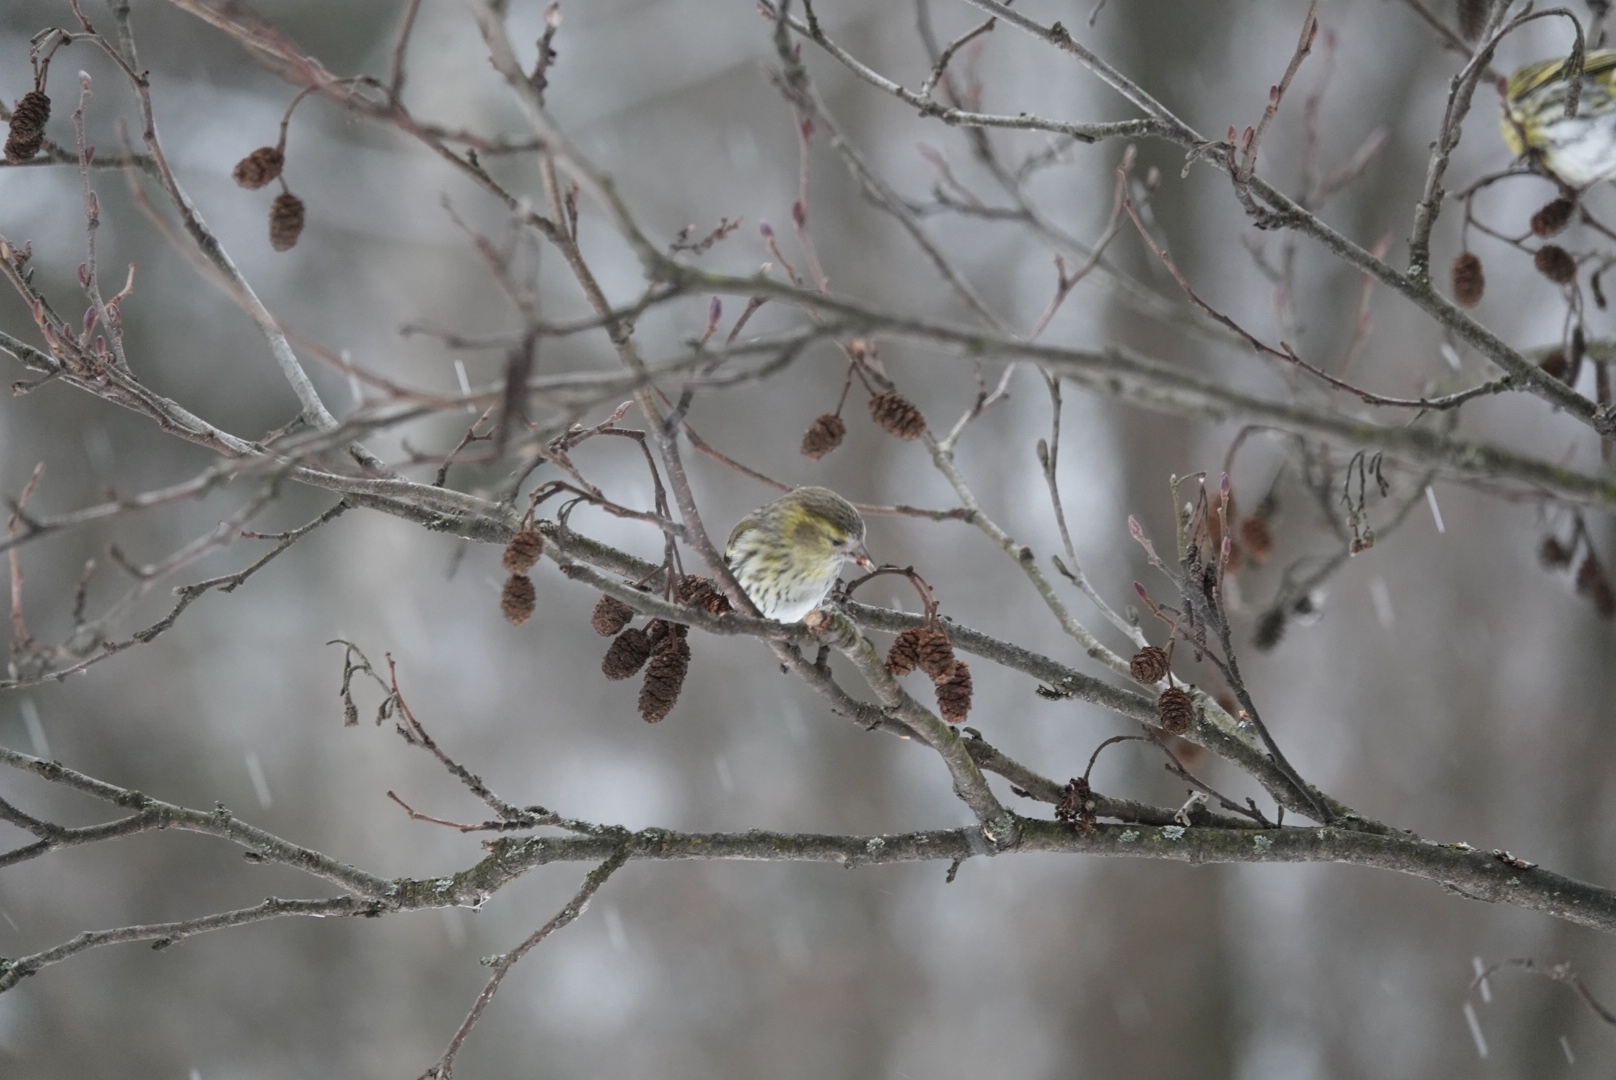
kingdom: Animalia
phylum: Chordata
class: Aves
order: Passeriformes
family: Fringillidae
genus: Spinus
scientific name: Spinus spinus
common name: Eurasian siskin
